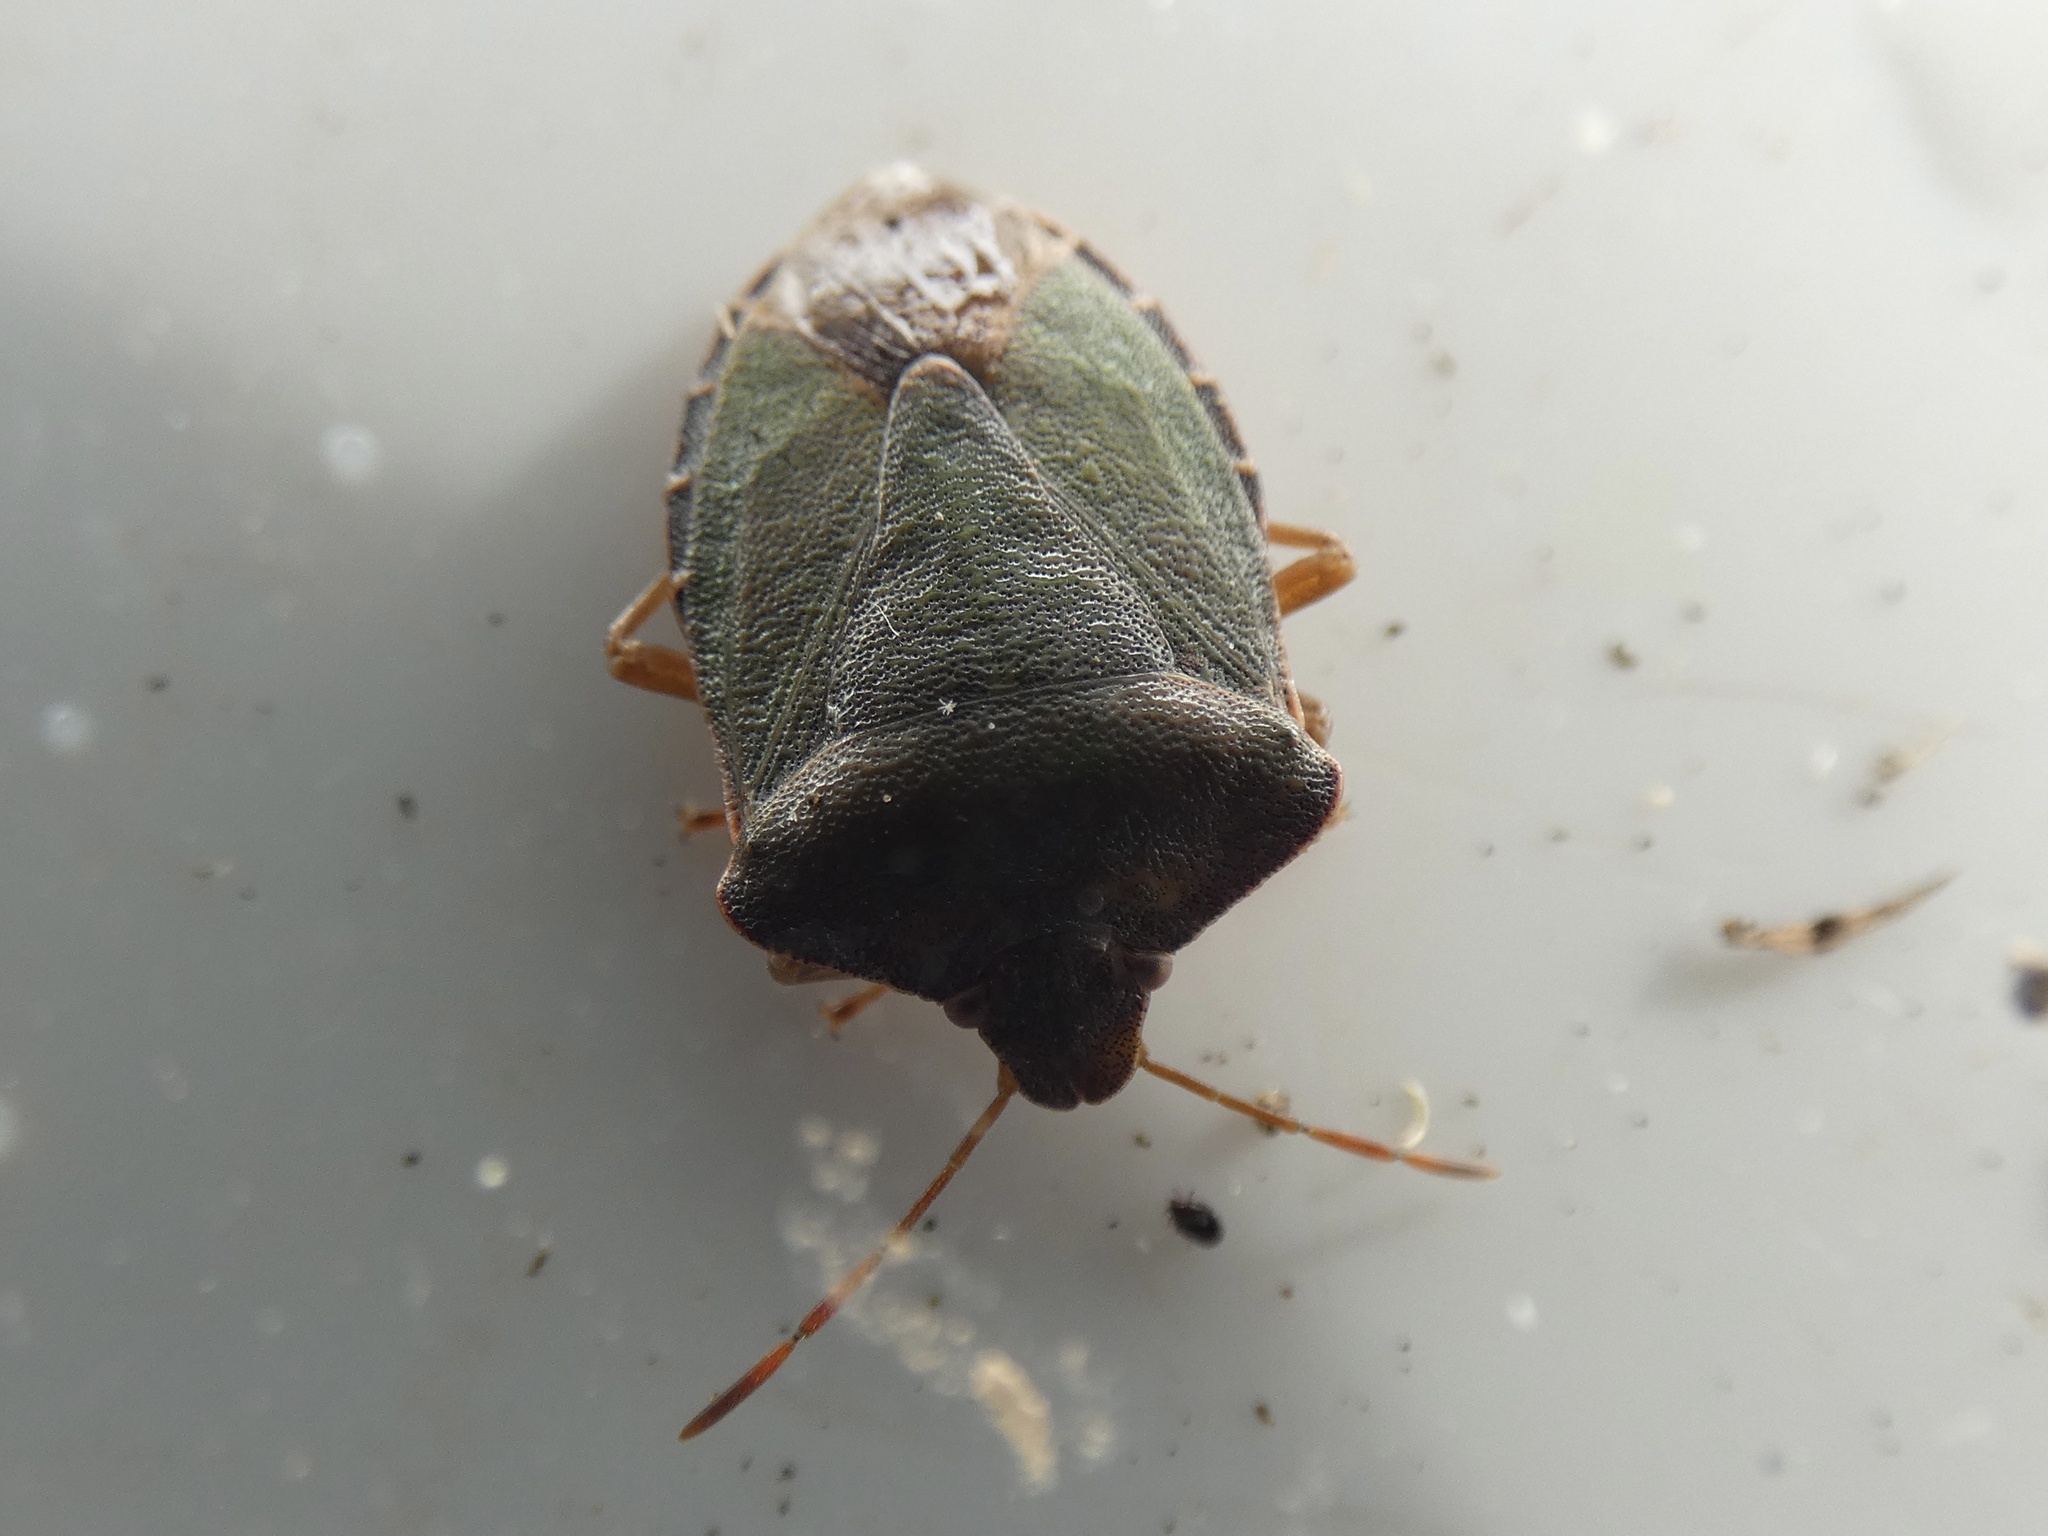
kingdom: Animalia
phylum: Arthropoda
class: Insecta
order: Hemiptera
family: Pentatomidae
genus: Palomena
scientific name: Palomena prasina
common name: Green shieldbug
